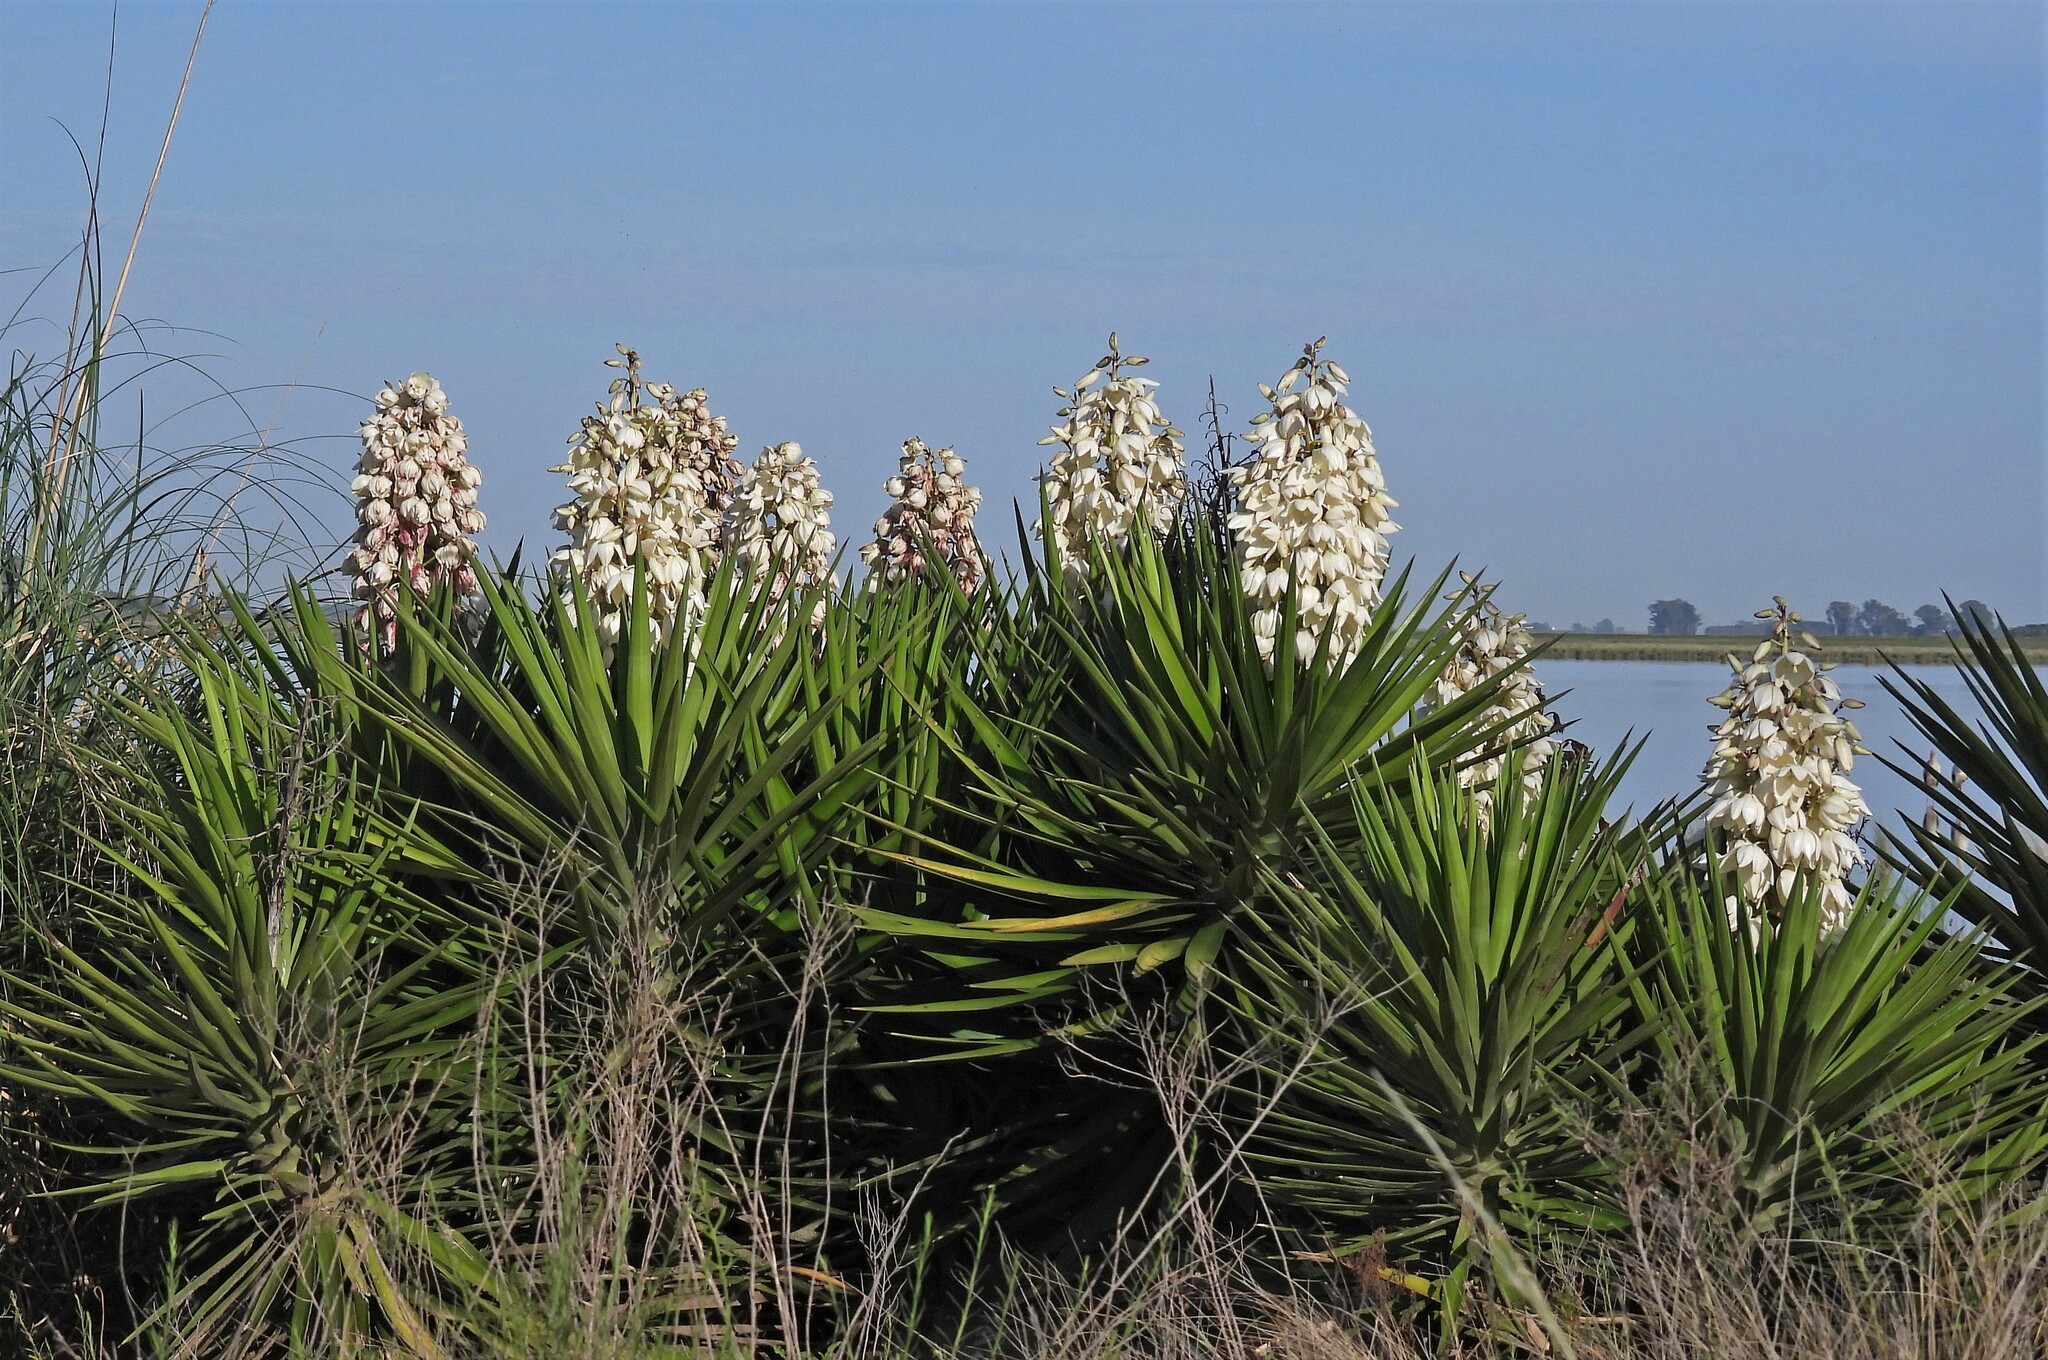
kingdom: Plantae
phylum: Tracheophyta
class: Liliopsida
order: Asparagales
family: Asparagaceae
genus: Yucca
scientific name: Yucca aloifolia
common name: Aloe yucca
